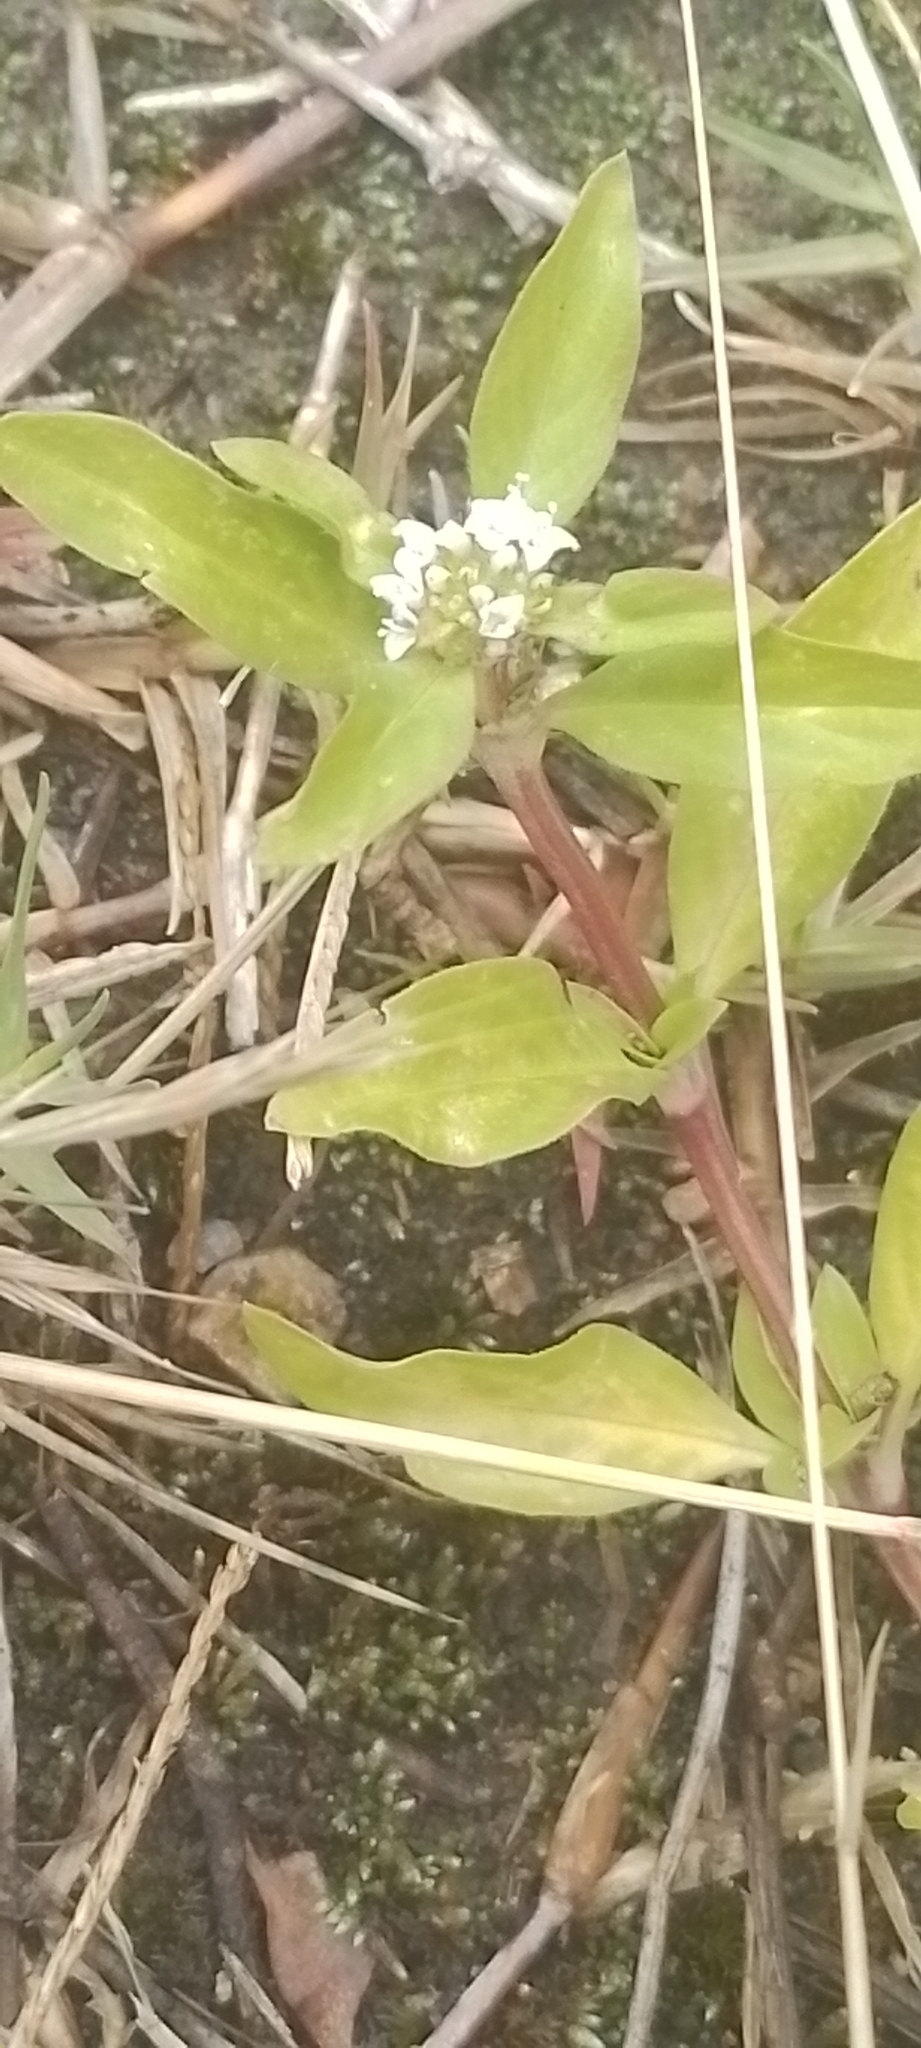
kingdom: Plantae
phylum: Tracheophyta
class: Magnoliopsida
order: Gentianales
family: Rubiaceae
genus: Spermacoce
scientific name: Spermacoce dasycephala
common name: False buttonweed
